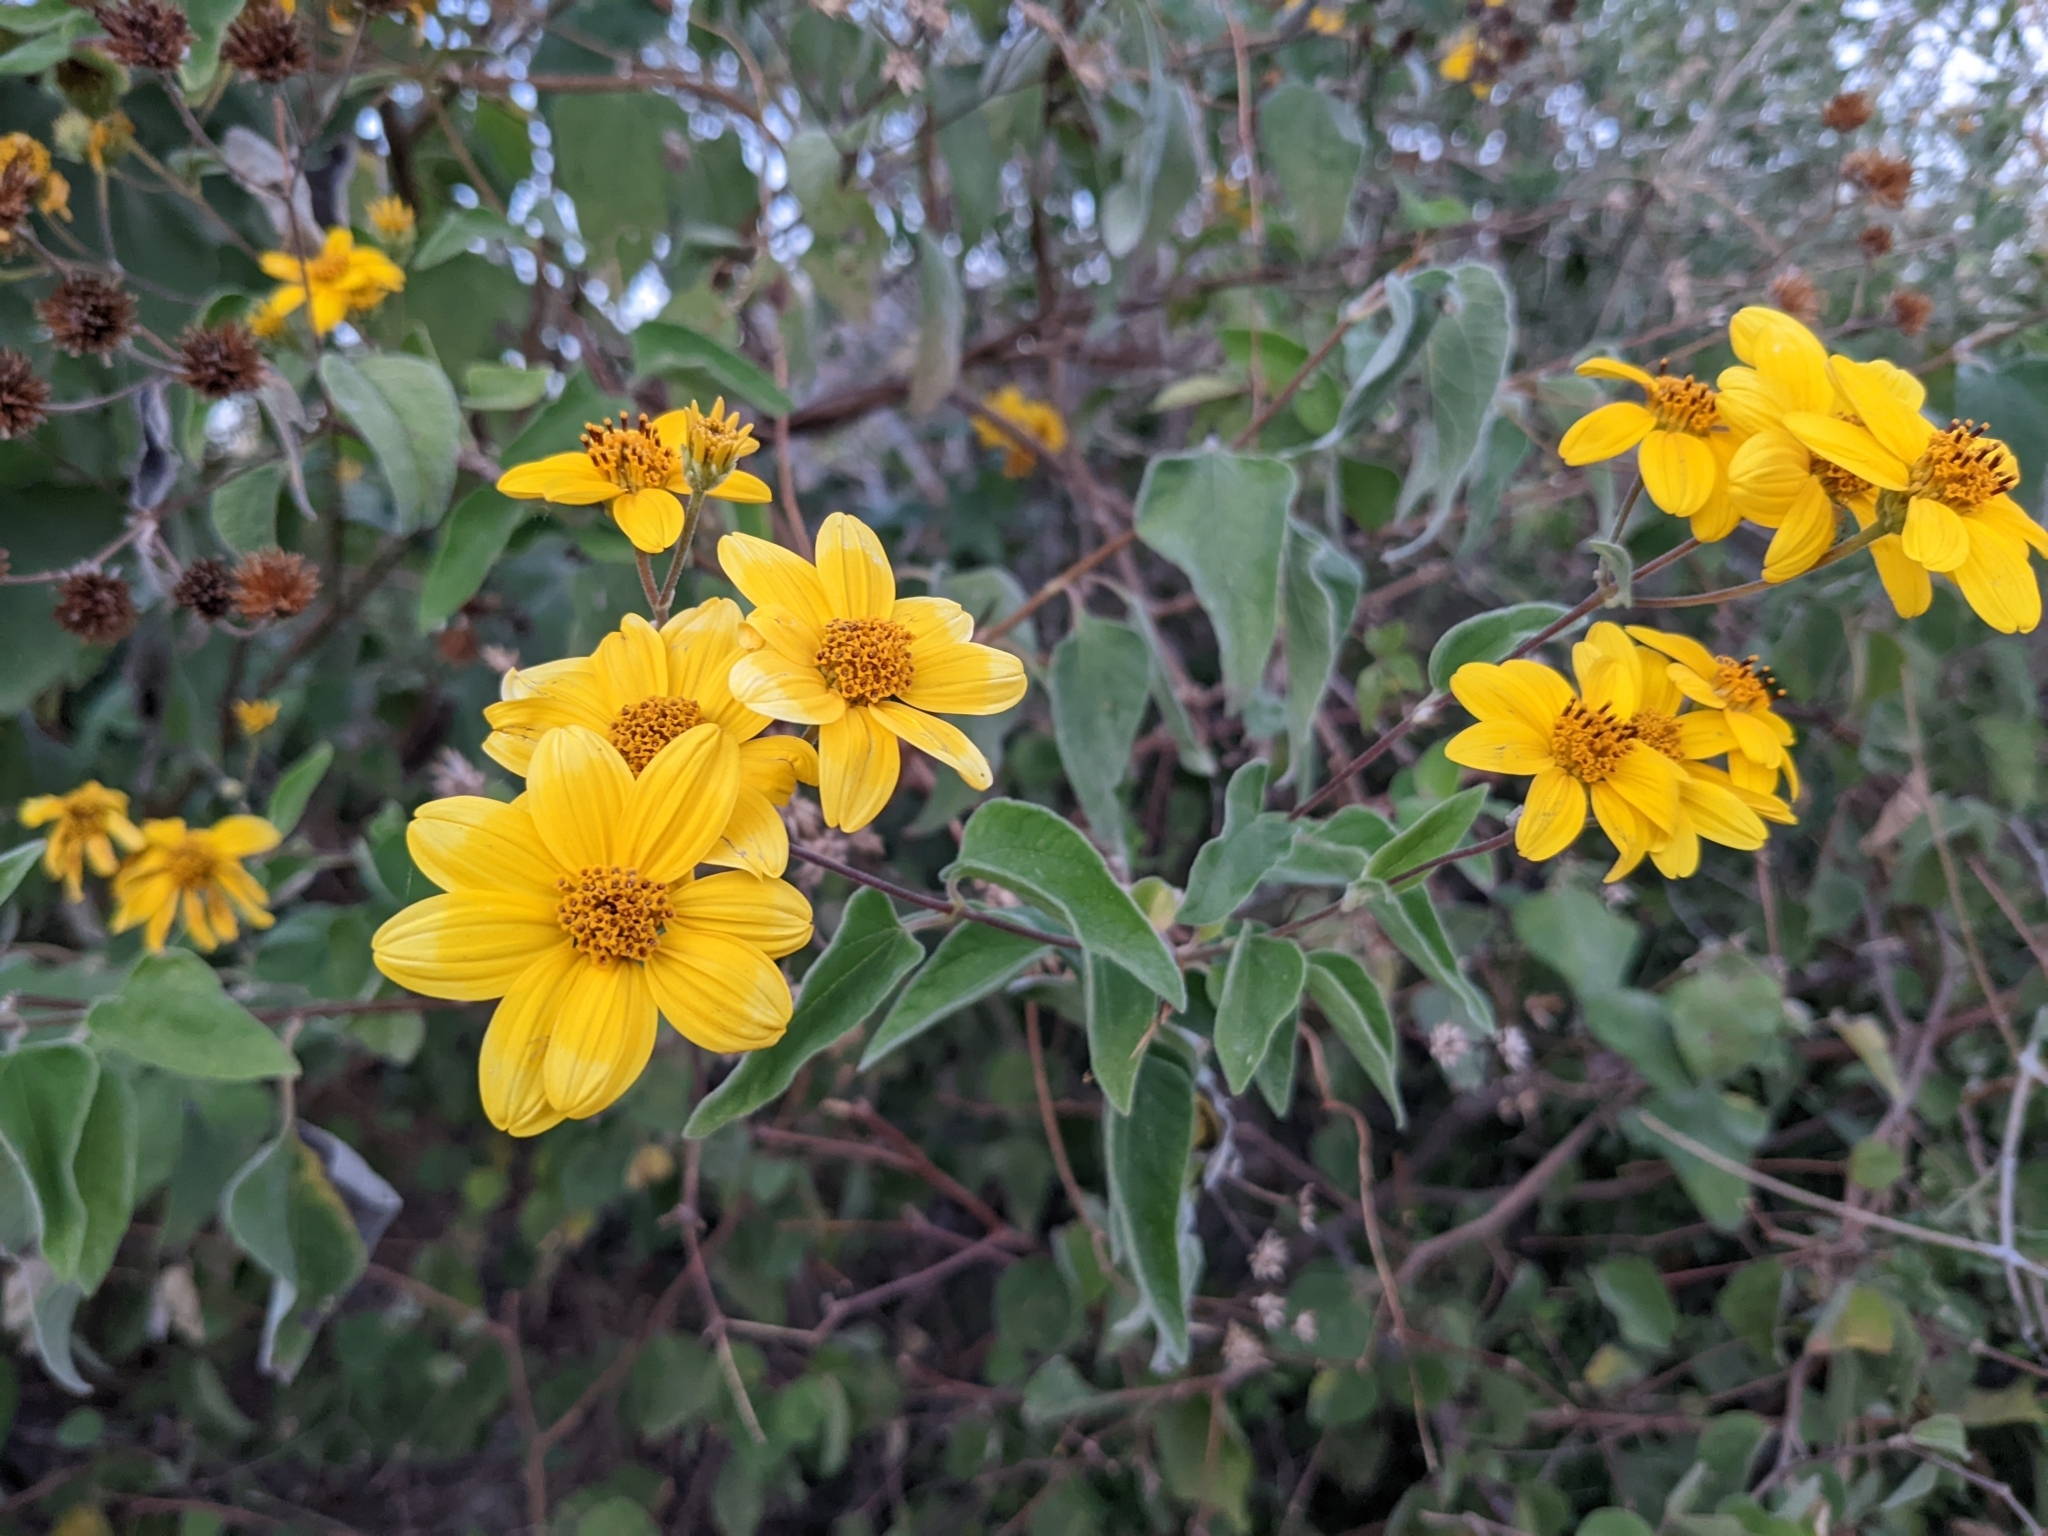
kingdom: Plantae
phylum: Tracheophyta
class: Magnoliopsida
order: Asterales
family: Asteraceae
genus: Bahiopsis
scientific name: Bahiopsis tomentosa
